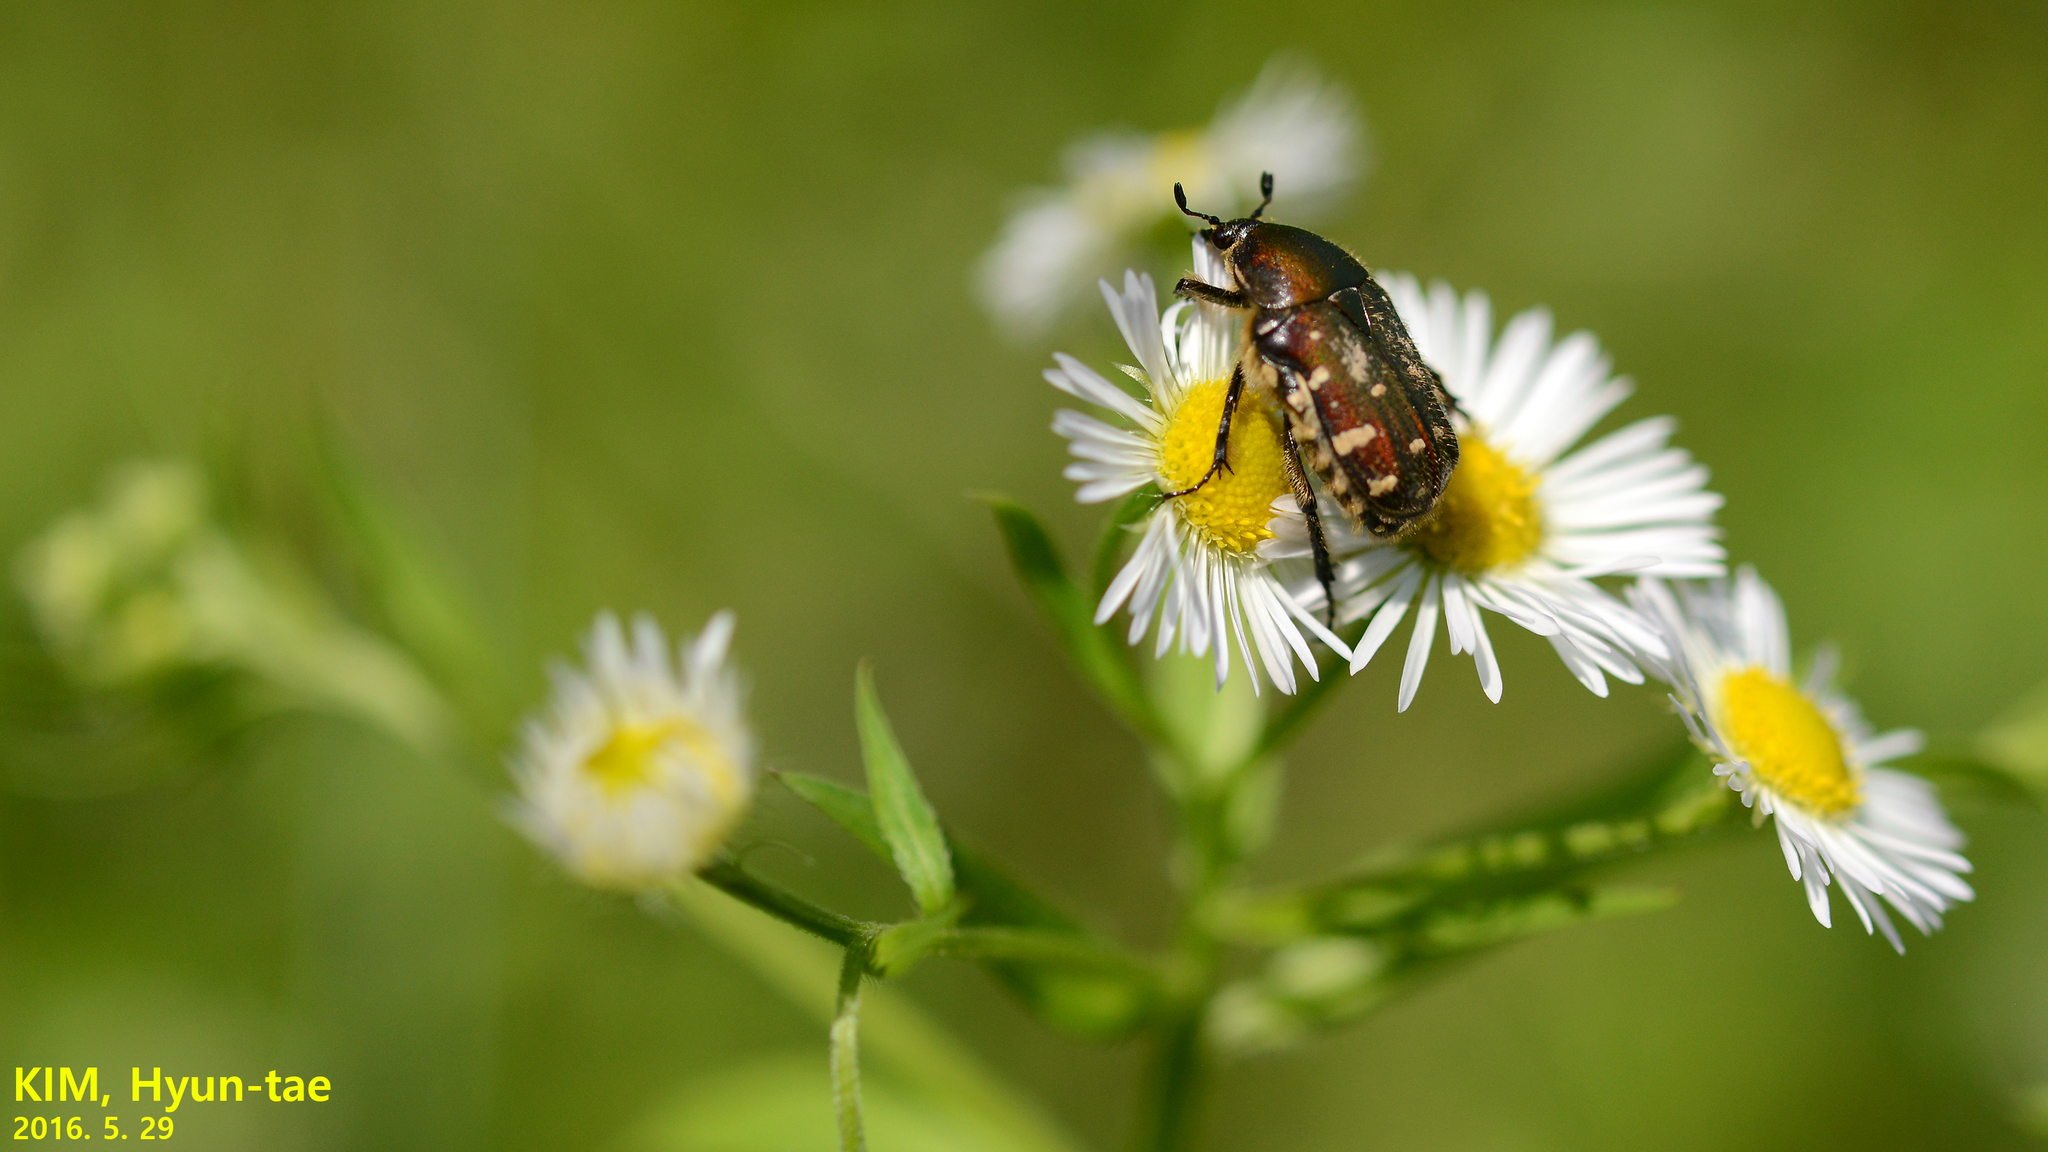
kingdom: Animalia
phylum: Arthropoda
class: Insecta
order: Coleoptera
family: Scarabaeidae
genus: Gametis
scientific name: Gametis jucunda
